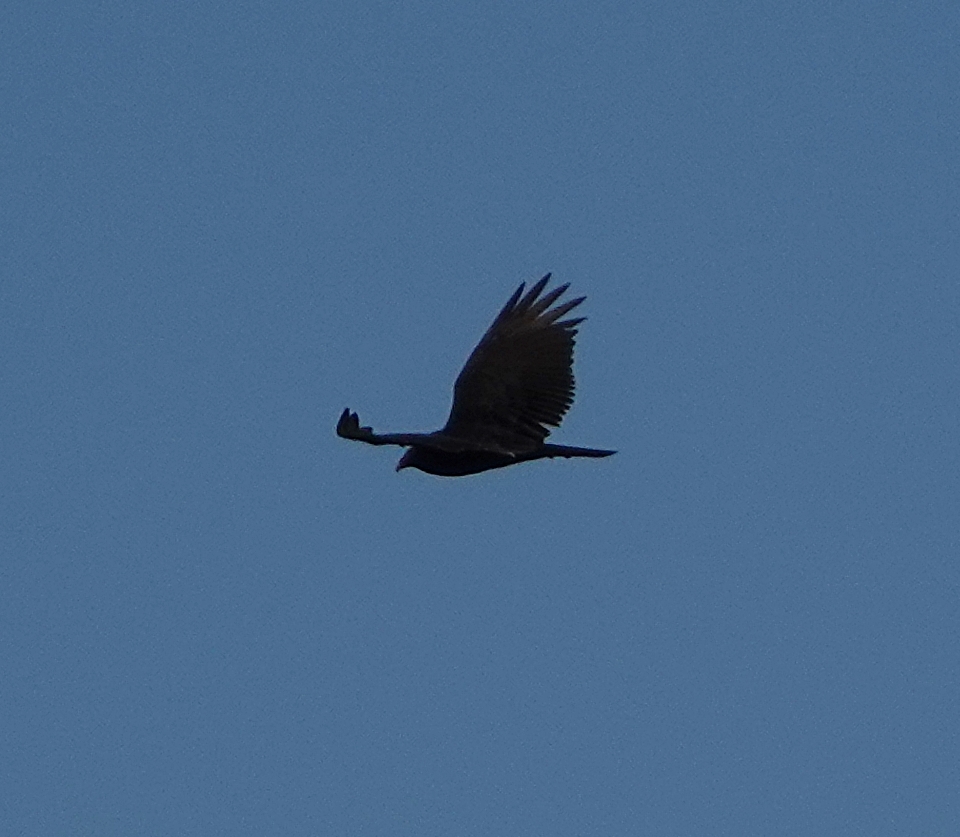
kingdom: Animalia
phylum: Chordata
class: Aves
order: Accipitriformes
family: Cathartidae
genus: Cathartes
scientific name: Cathartes aura
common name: Turkey vulture
